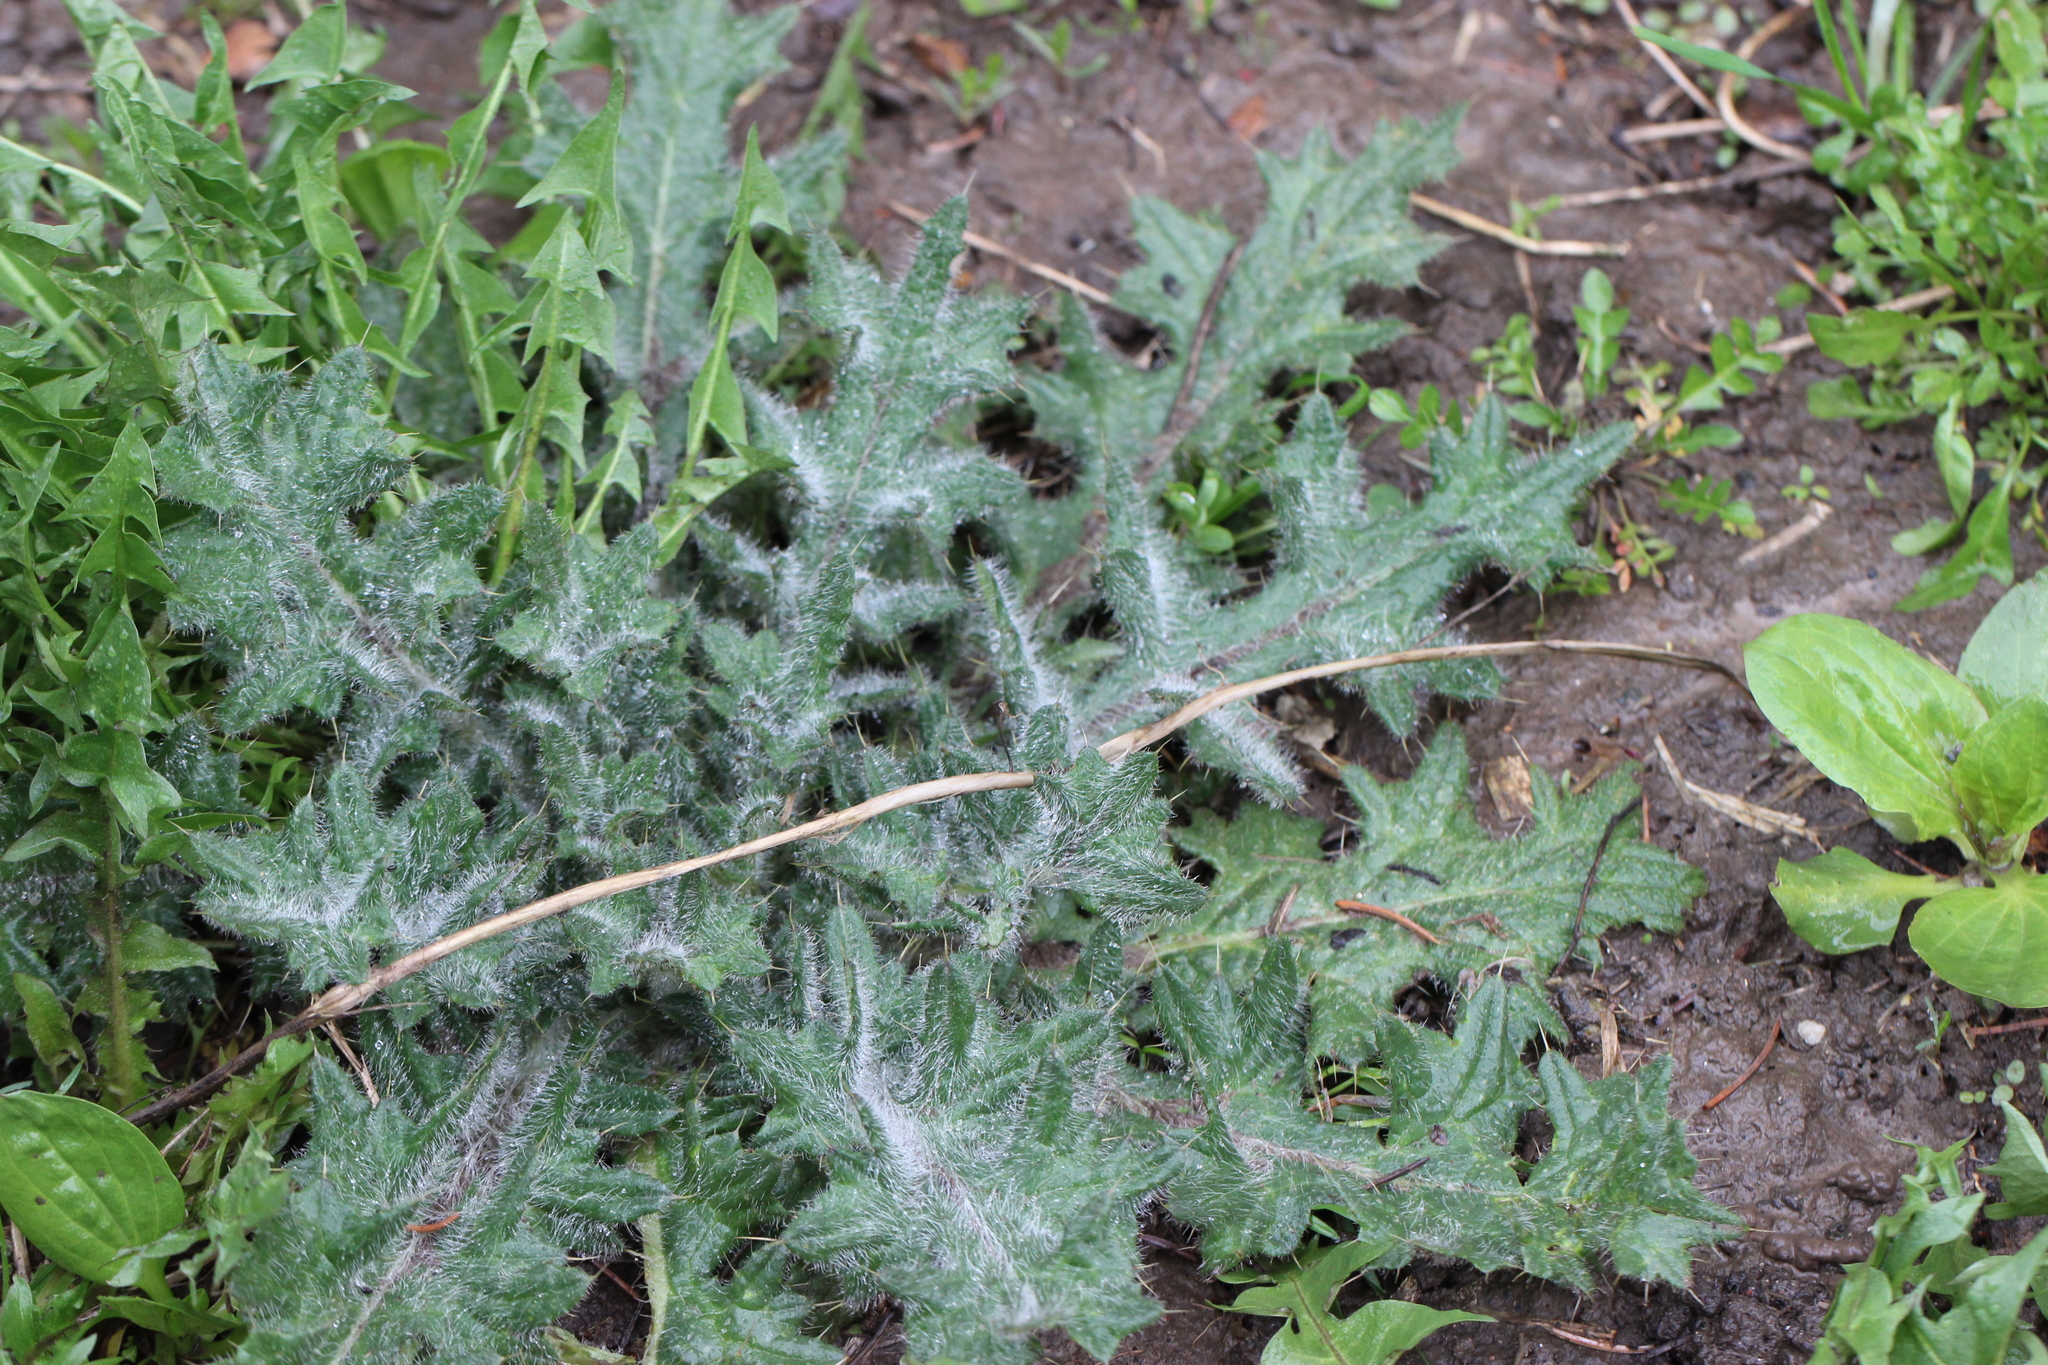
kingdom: Plantae
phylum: Tracheophyta
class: Magnoliopsida
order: Asterales
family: Asteraceae
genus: Cirsium
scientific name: Cirsium vulgare
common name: Bull thistle
